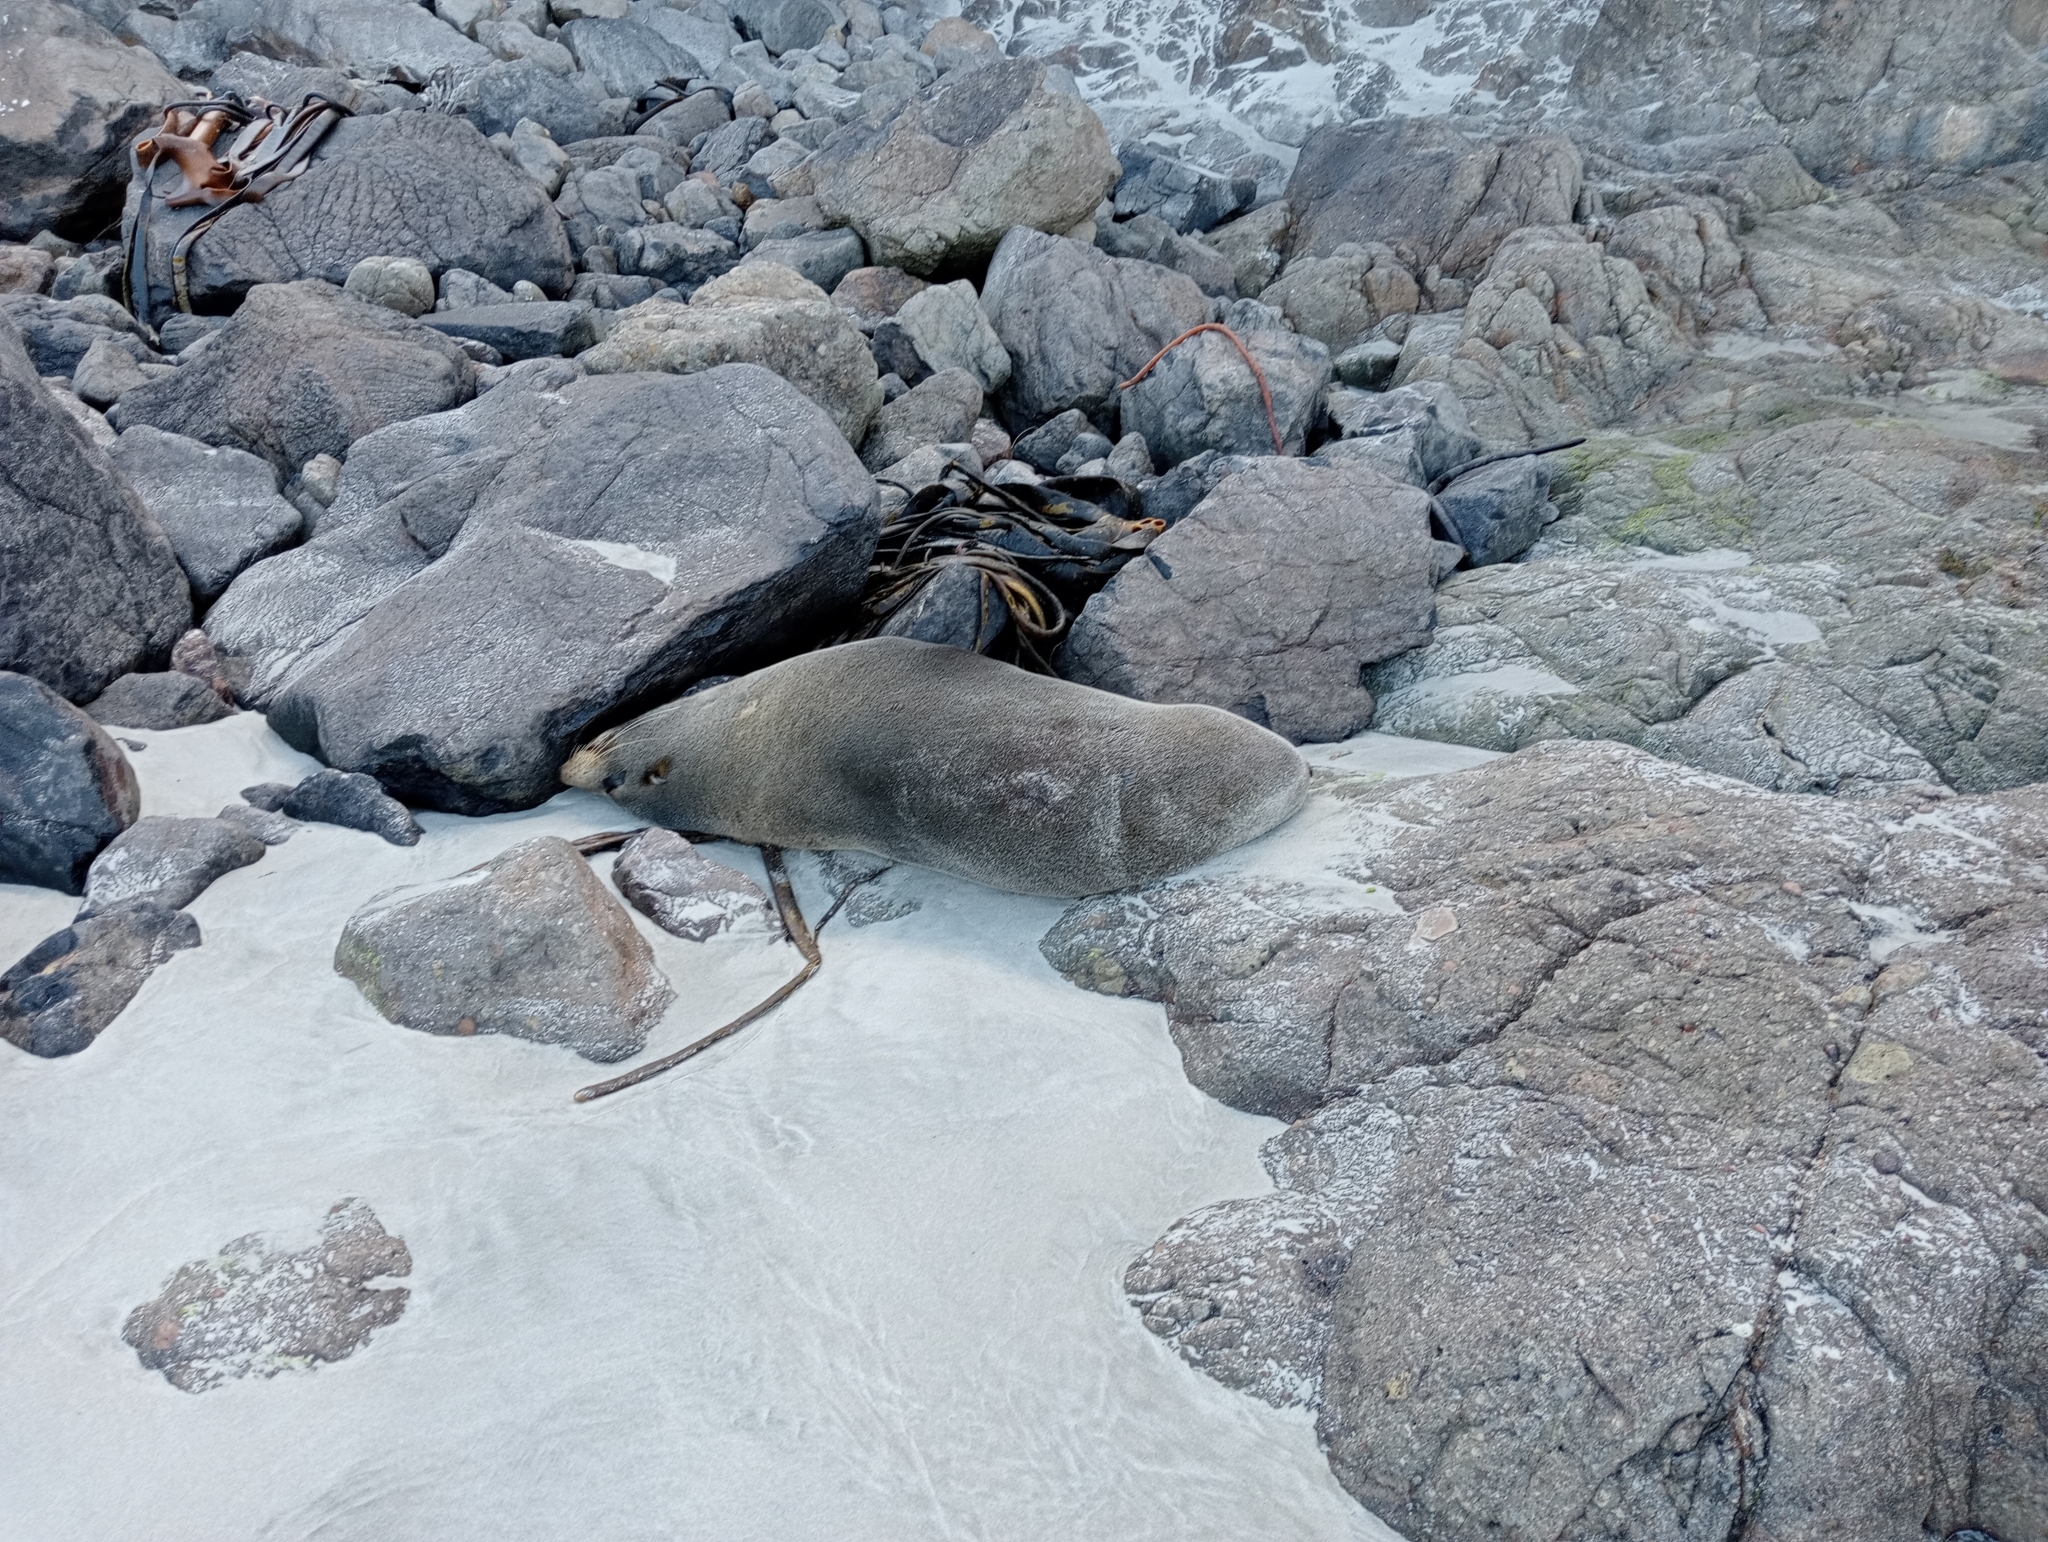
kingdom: Animalia
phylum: Chordata
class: Mammalia
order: Carnivora
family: Otariidae
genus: Arctocephalus
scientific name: Arctocephalus forsteri
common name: New zealand fur seal
